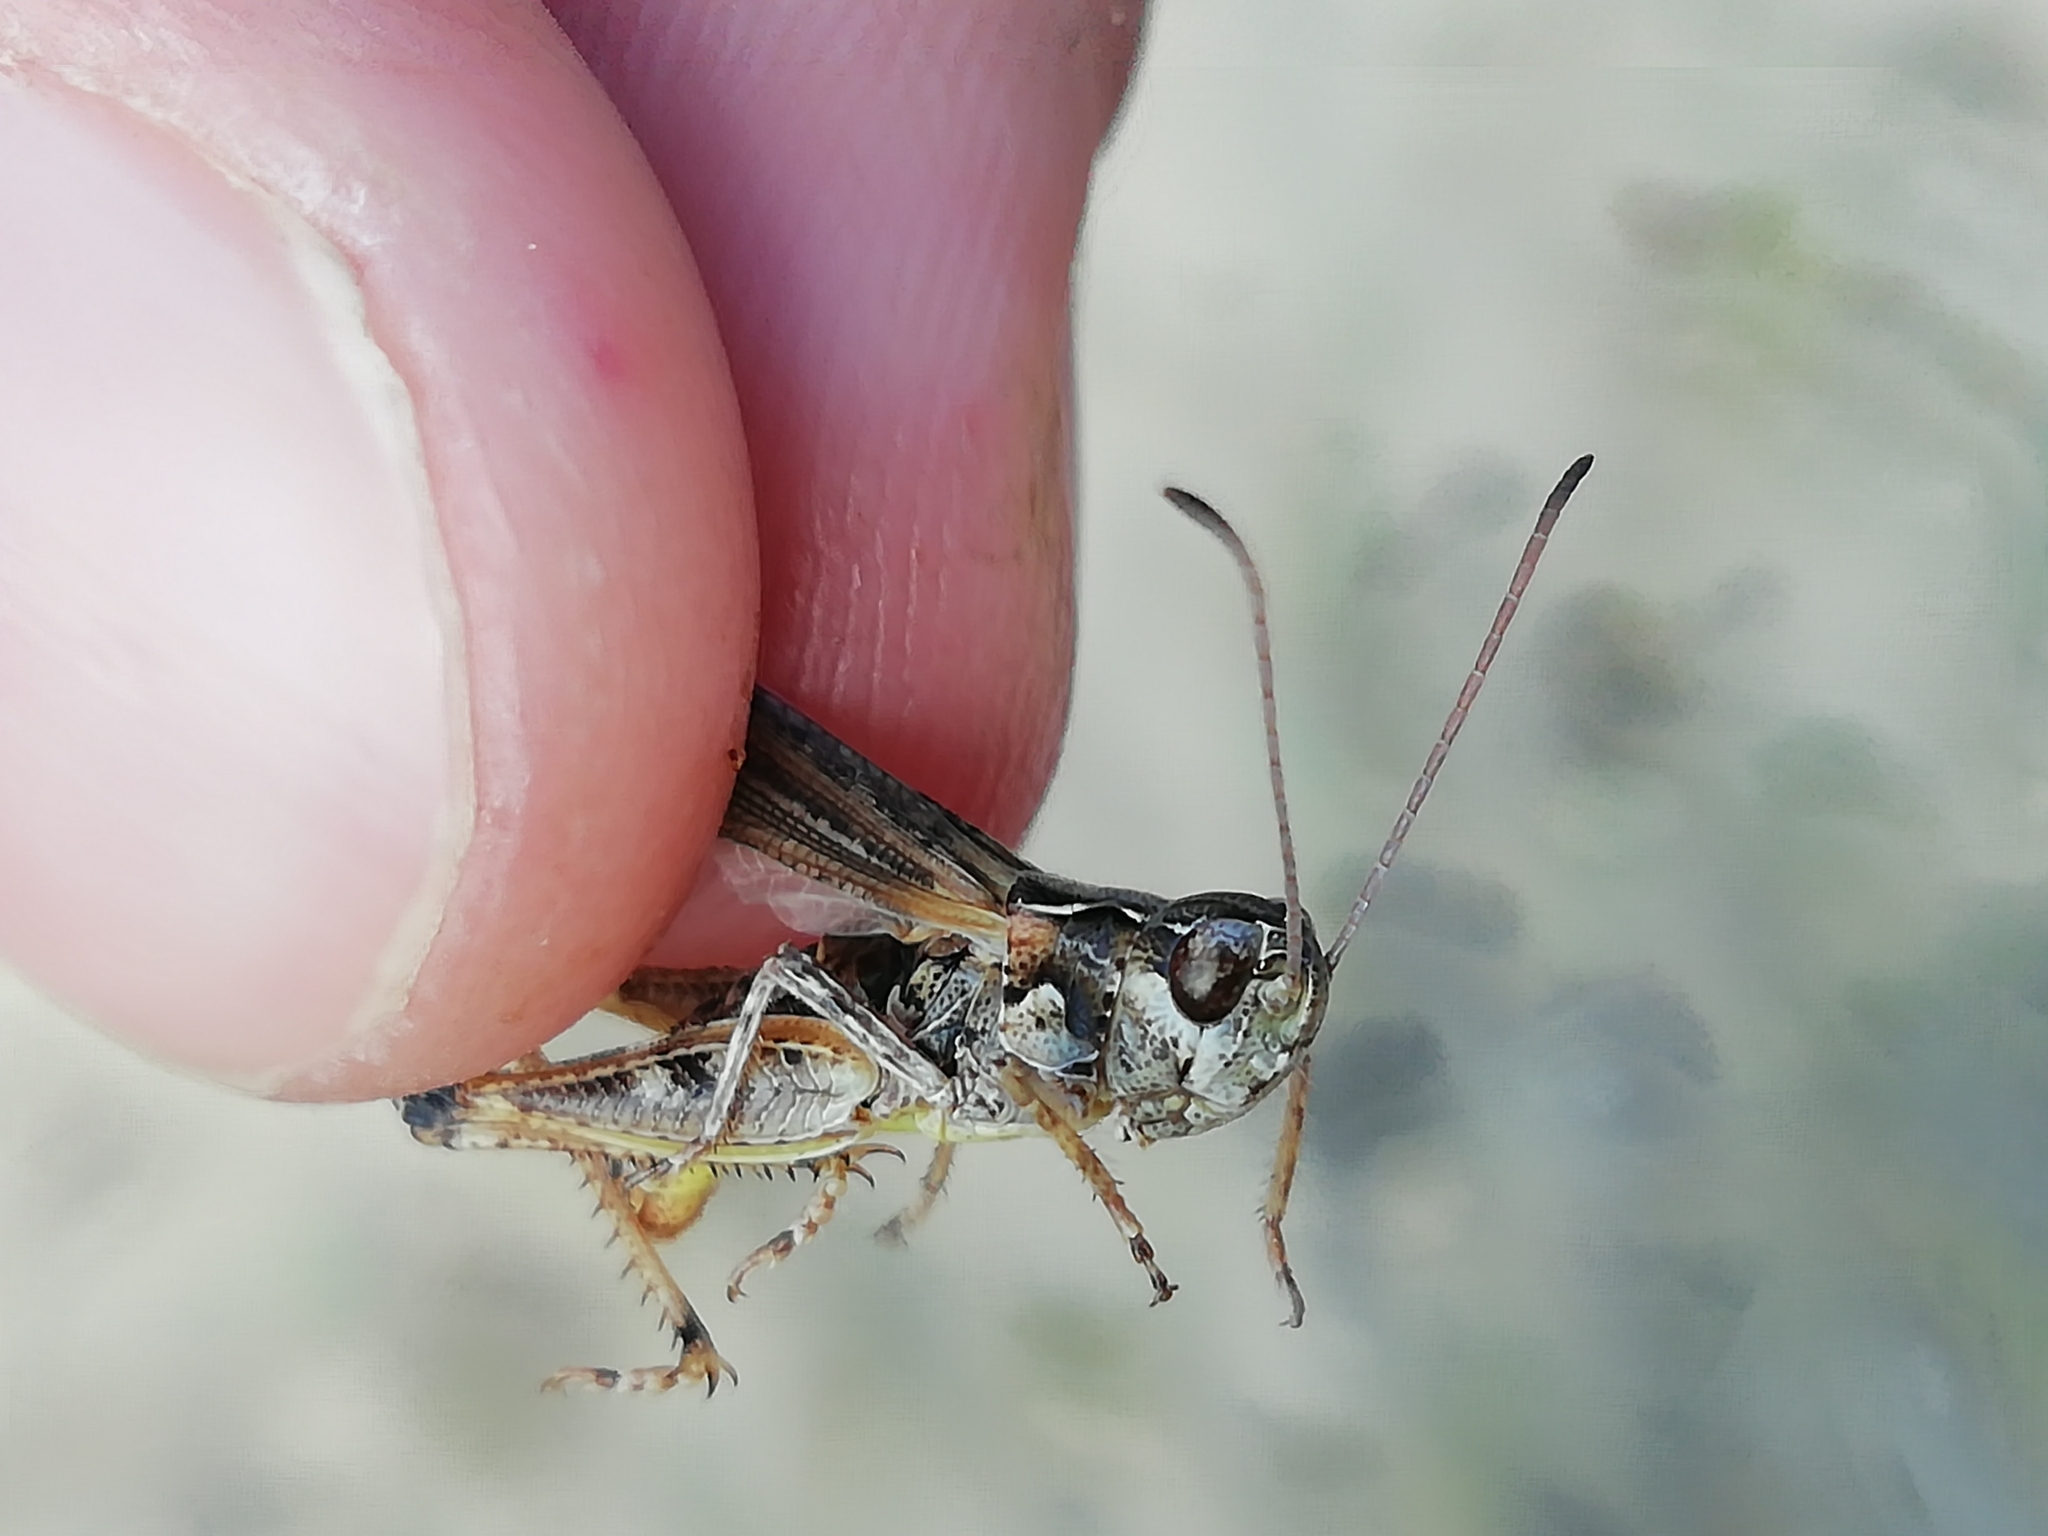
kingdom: Animalia
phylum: Arthropoda
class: Insecta
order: Orthoptera
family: Acrididae
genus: Myrmeleotettix
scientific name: Myrmeleotettix maculatus
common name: Mottled grasshopper
